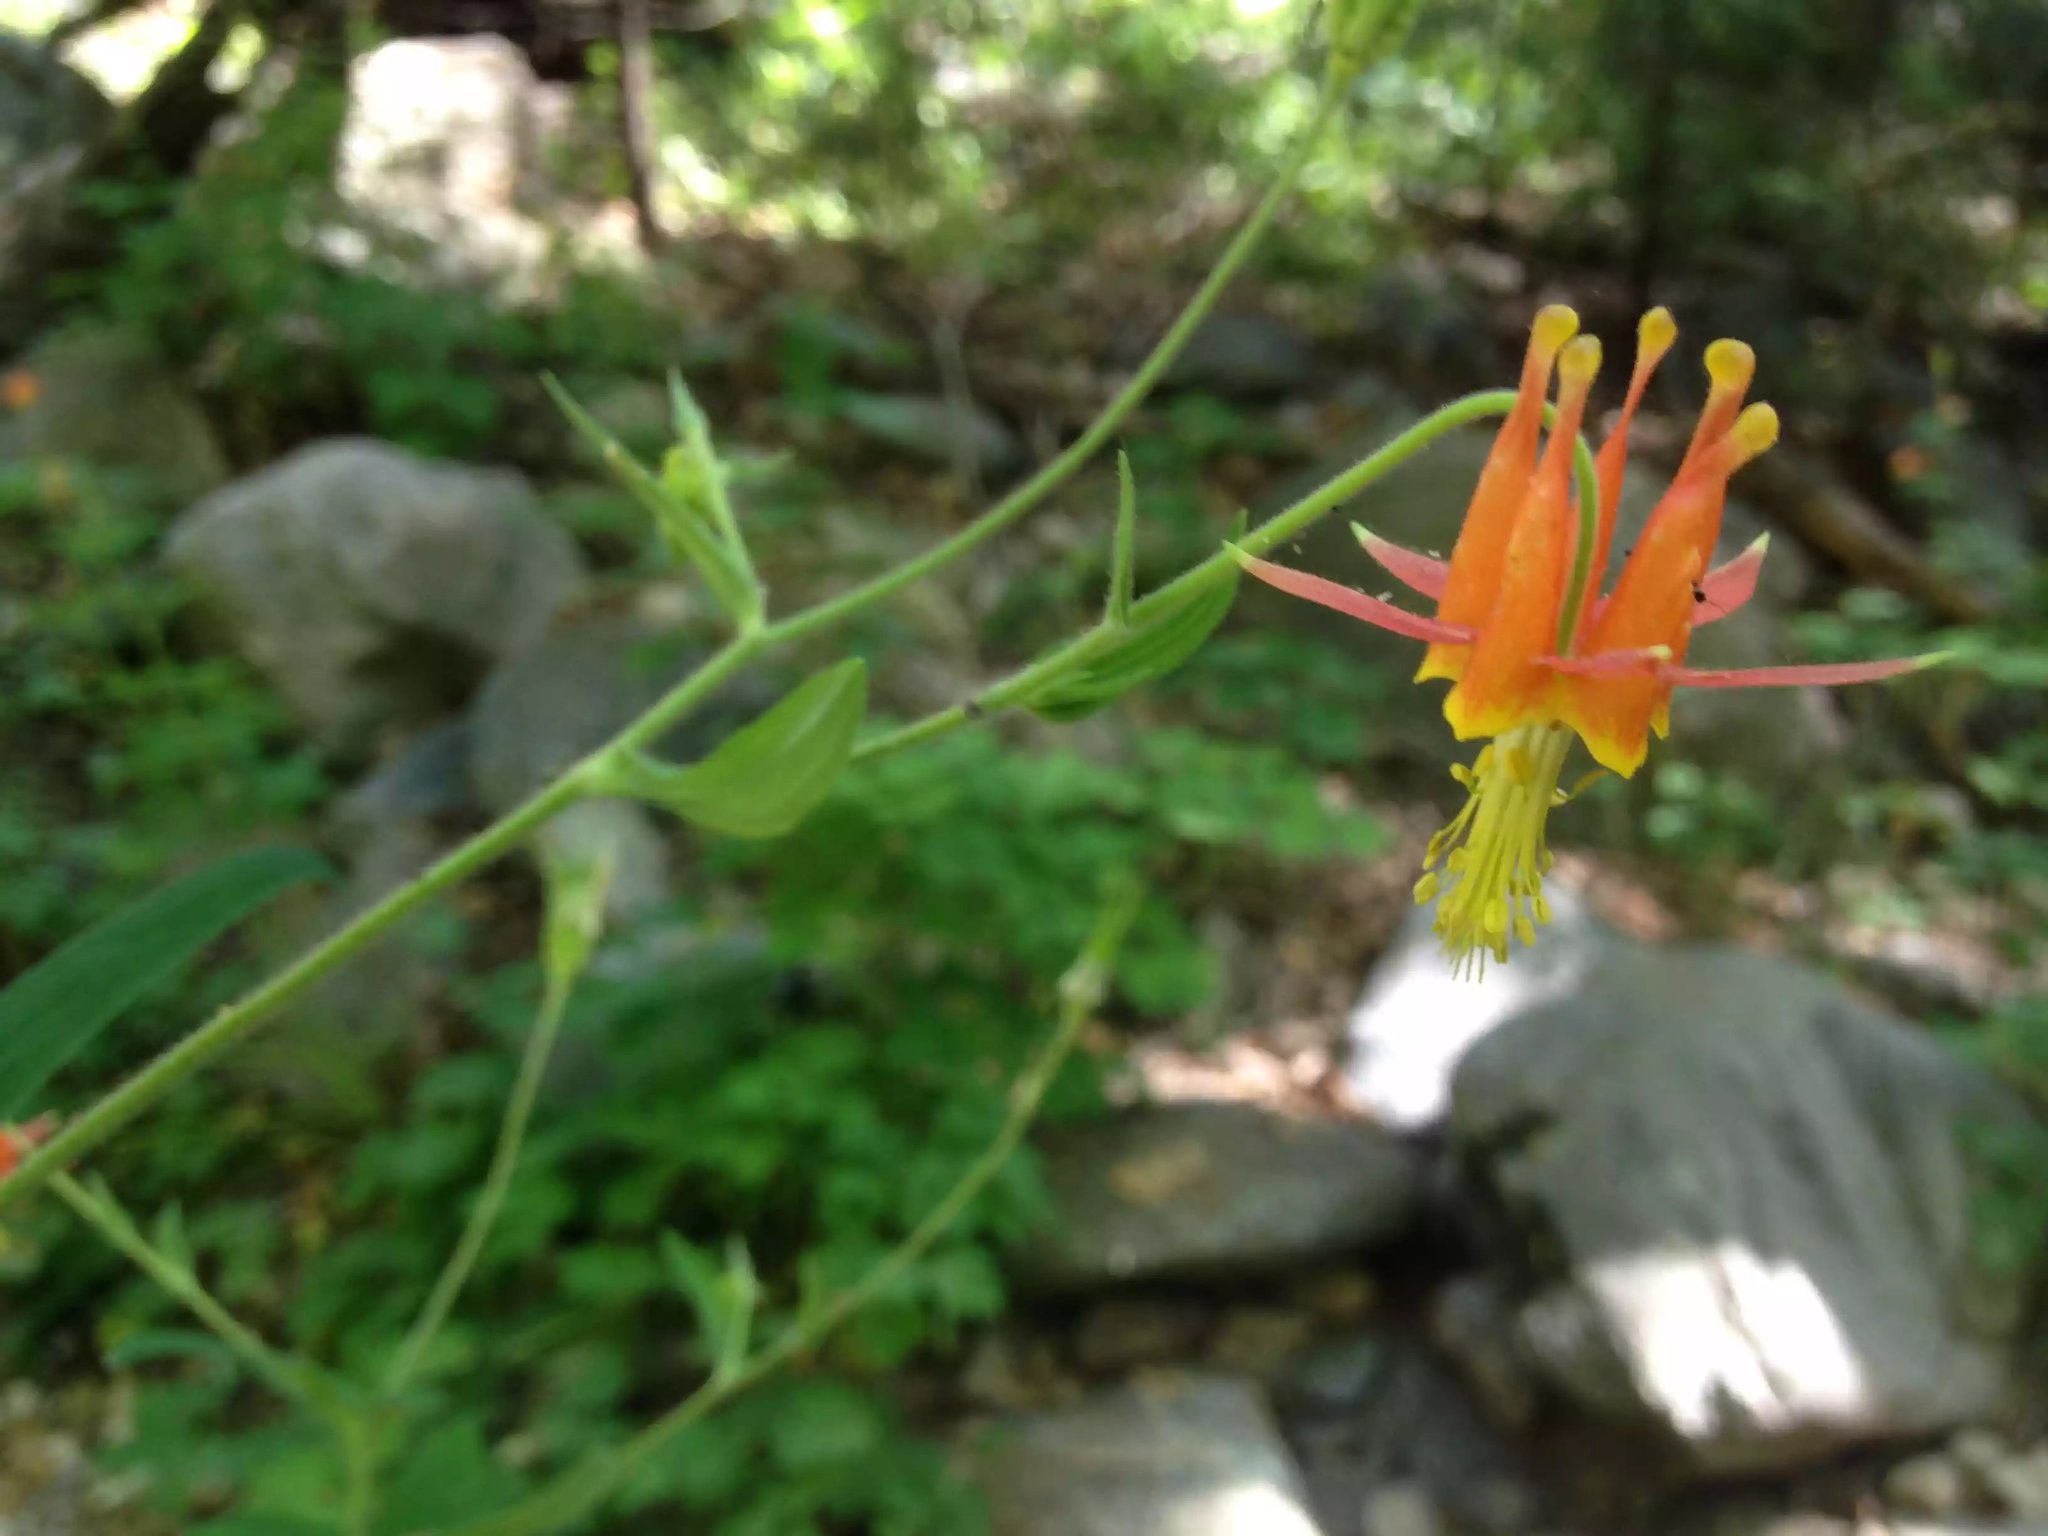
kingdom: Plantae
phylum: Tracheophyta
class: Magnoliopsida
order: Ranunculales
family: Ranunculaceae
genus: Aquilegia
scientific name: Aquilegia formosa
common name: Sitka columbine
